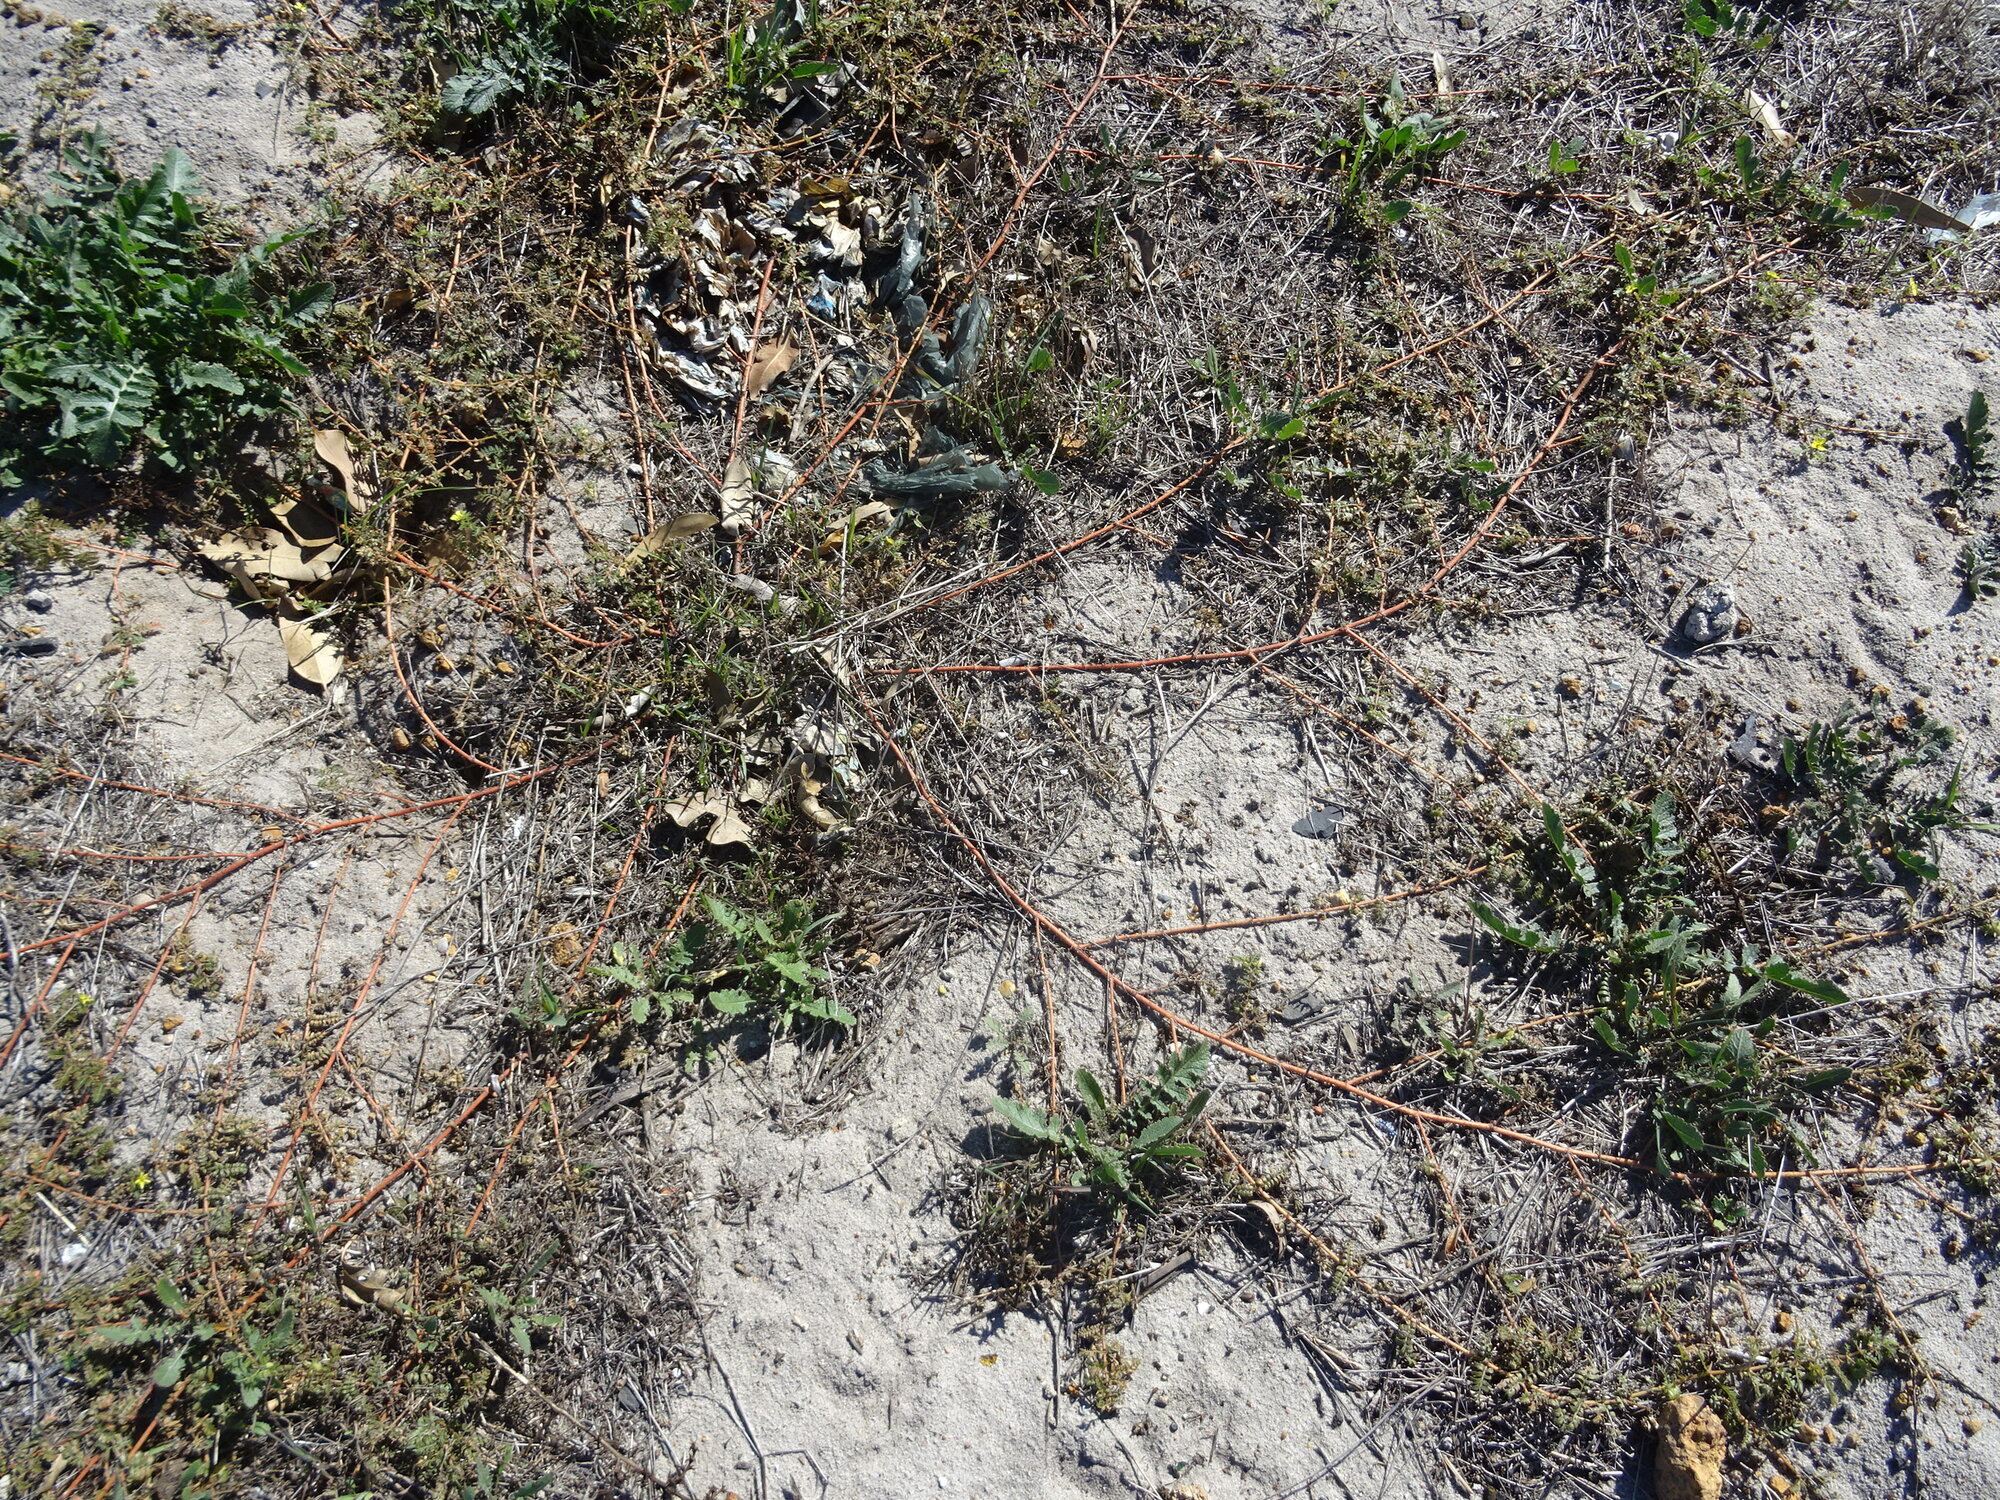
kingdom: Plantae
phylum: Tracheophyta
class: Magnoliopsida
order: Zygophyllales
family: Zygophyllaceae
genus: Tribulus
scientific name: Tribulus terrestris
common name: Puncturevine
